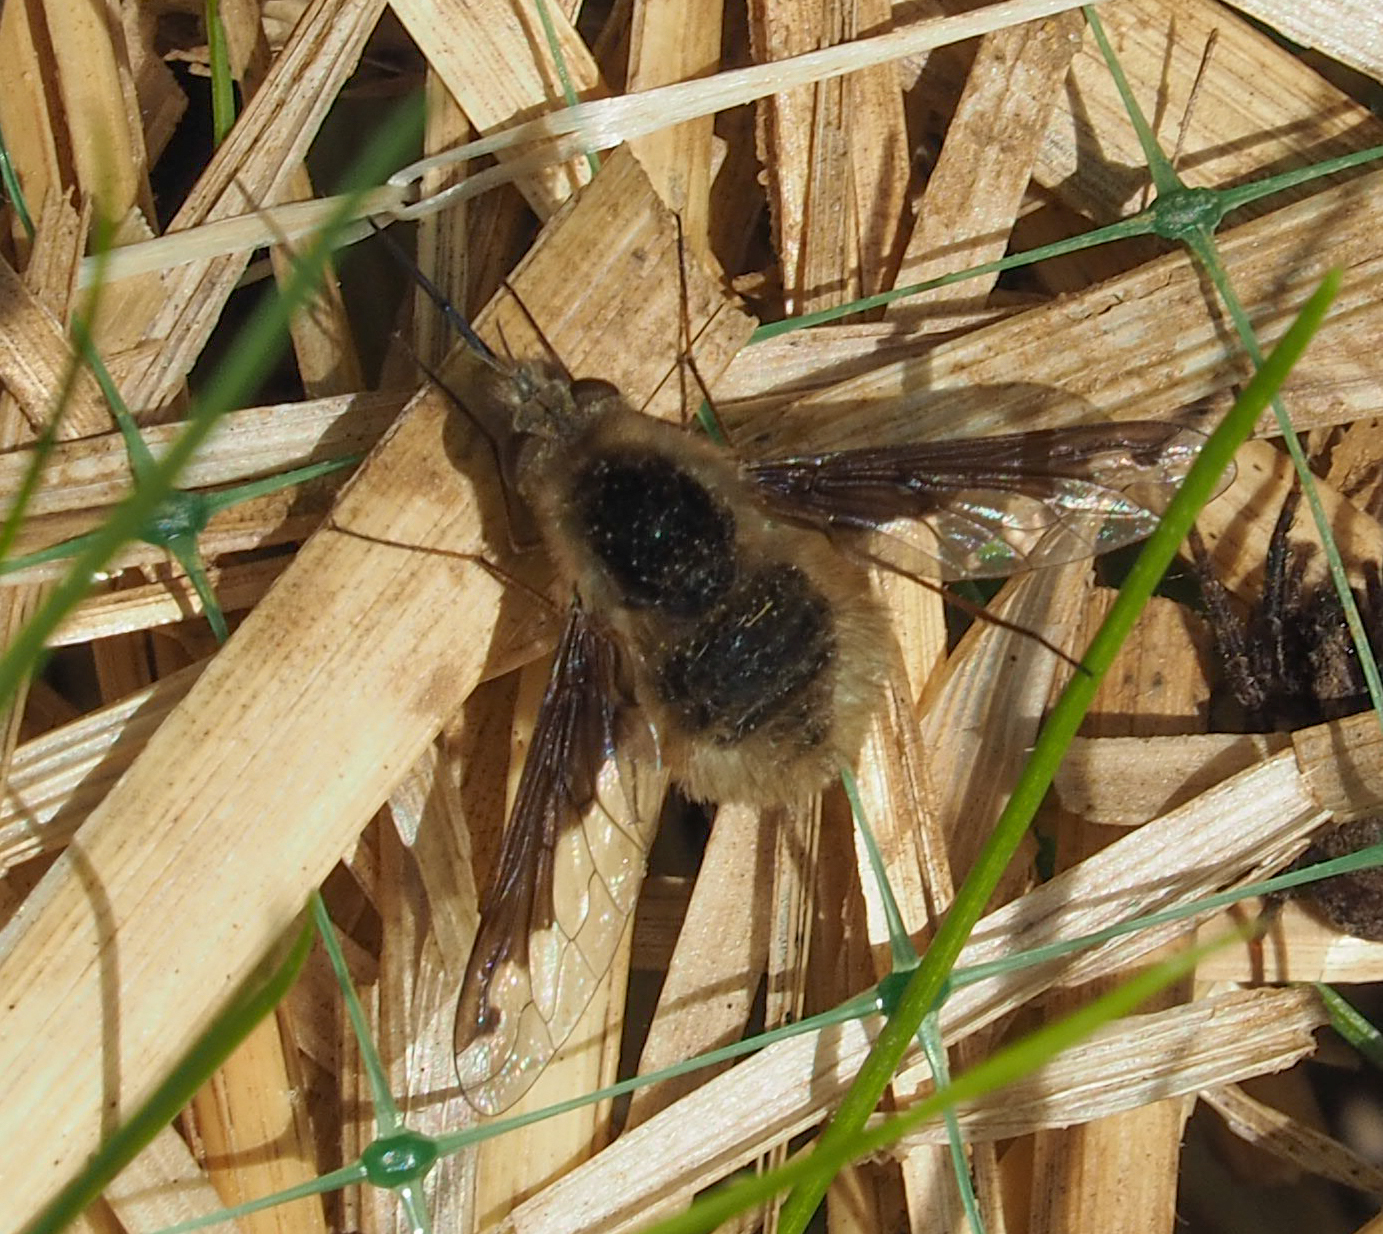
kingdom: Animalia
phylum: Arthropoda
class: Insecta
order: Diptera
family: Bombyliidae
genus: Bombylius
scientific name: Bombylius major
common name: Bee fly
